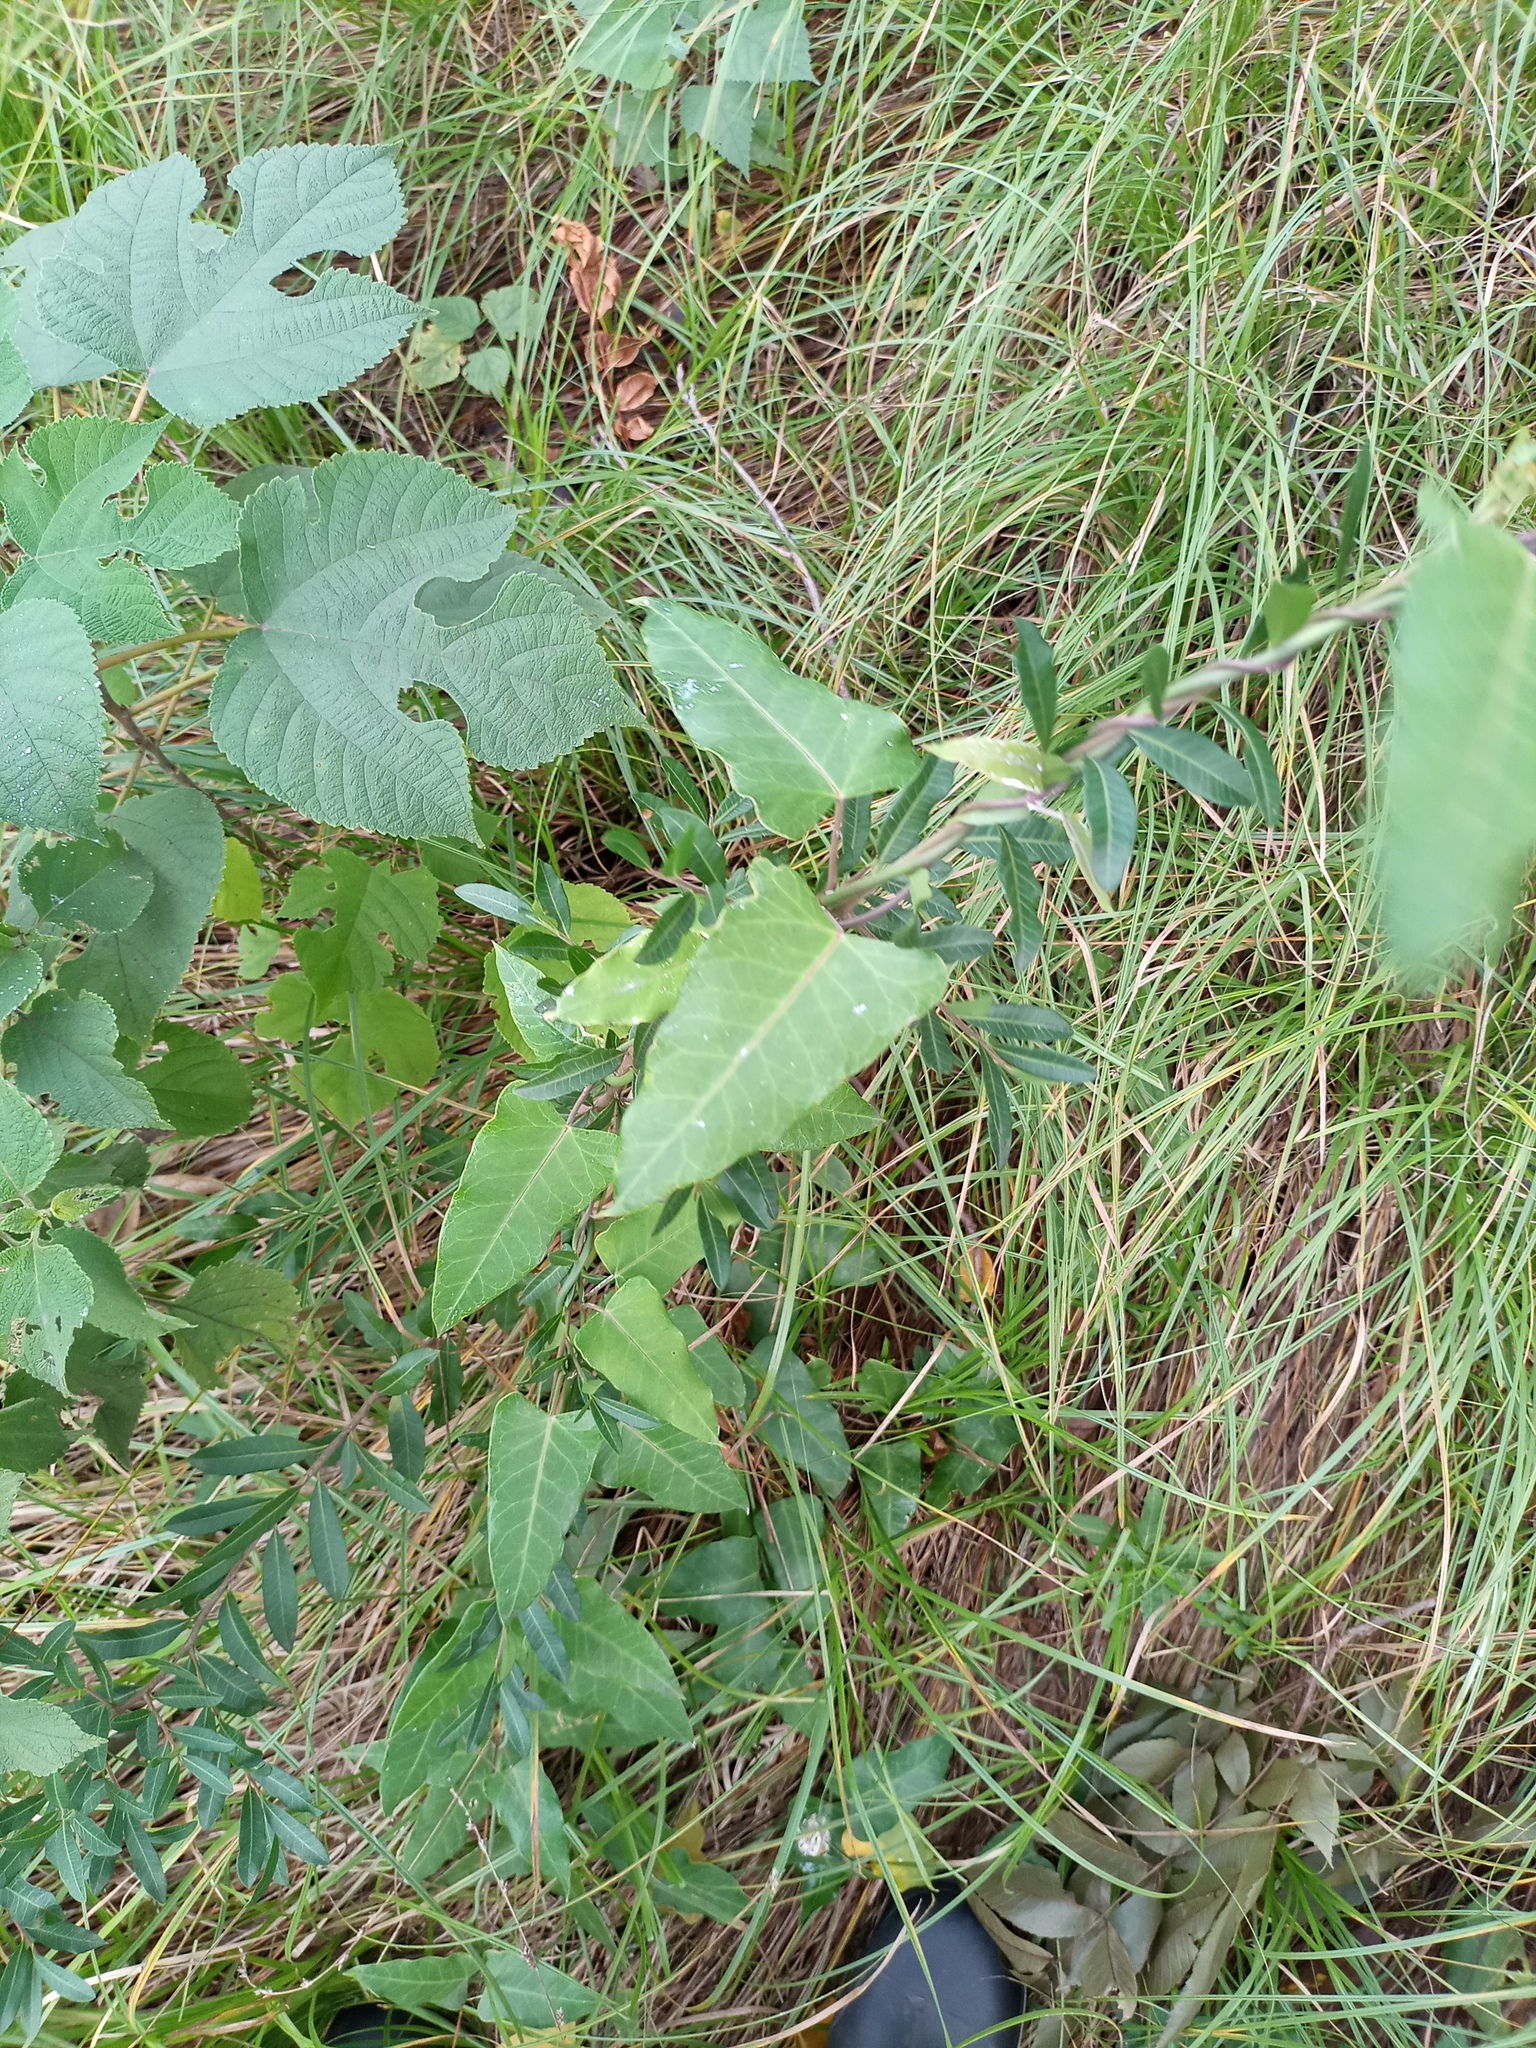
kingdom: Plantae
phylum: Tracheophyta
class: Magnoliopsida
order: Gentianales
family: Apocynaceae
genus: Araujia
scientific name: Araujia sericifera
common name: White bladderflower
